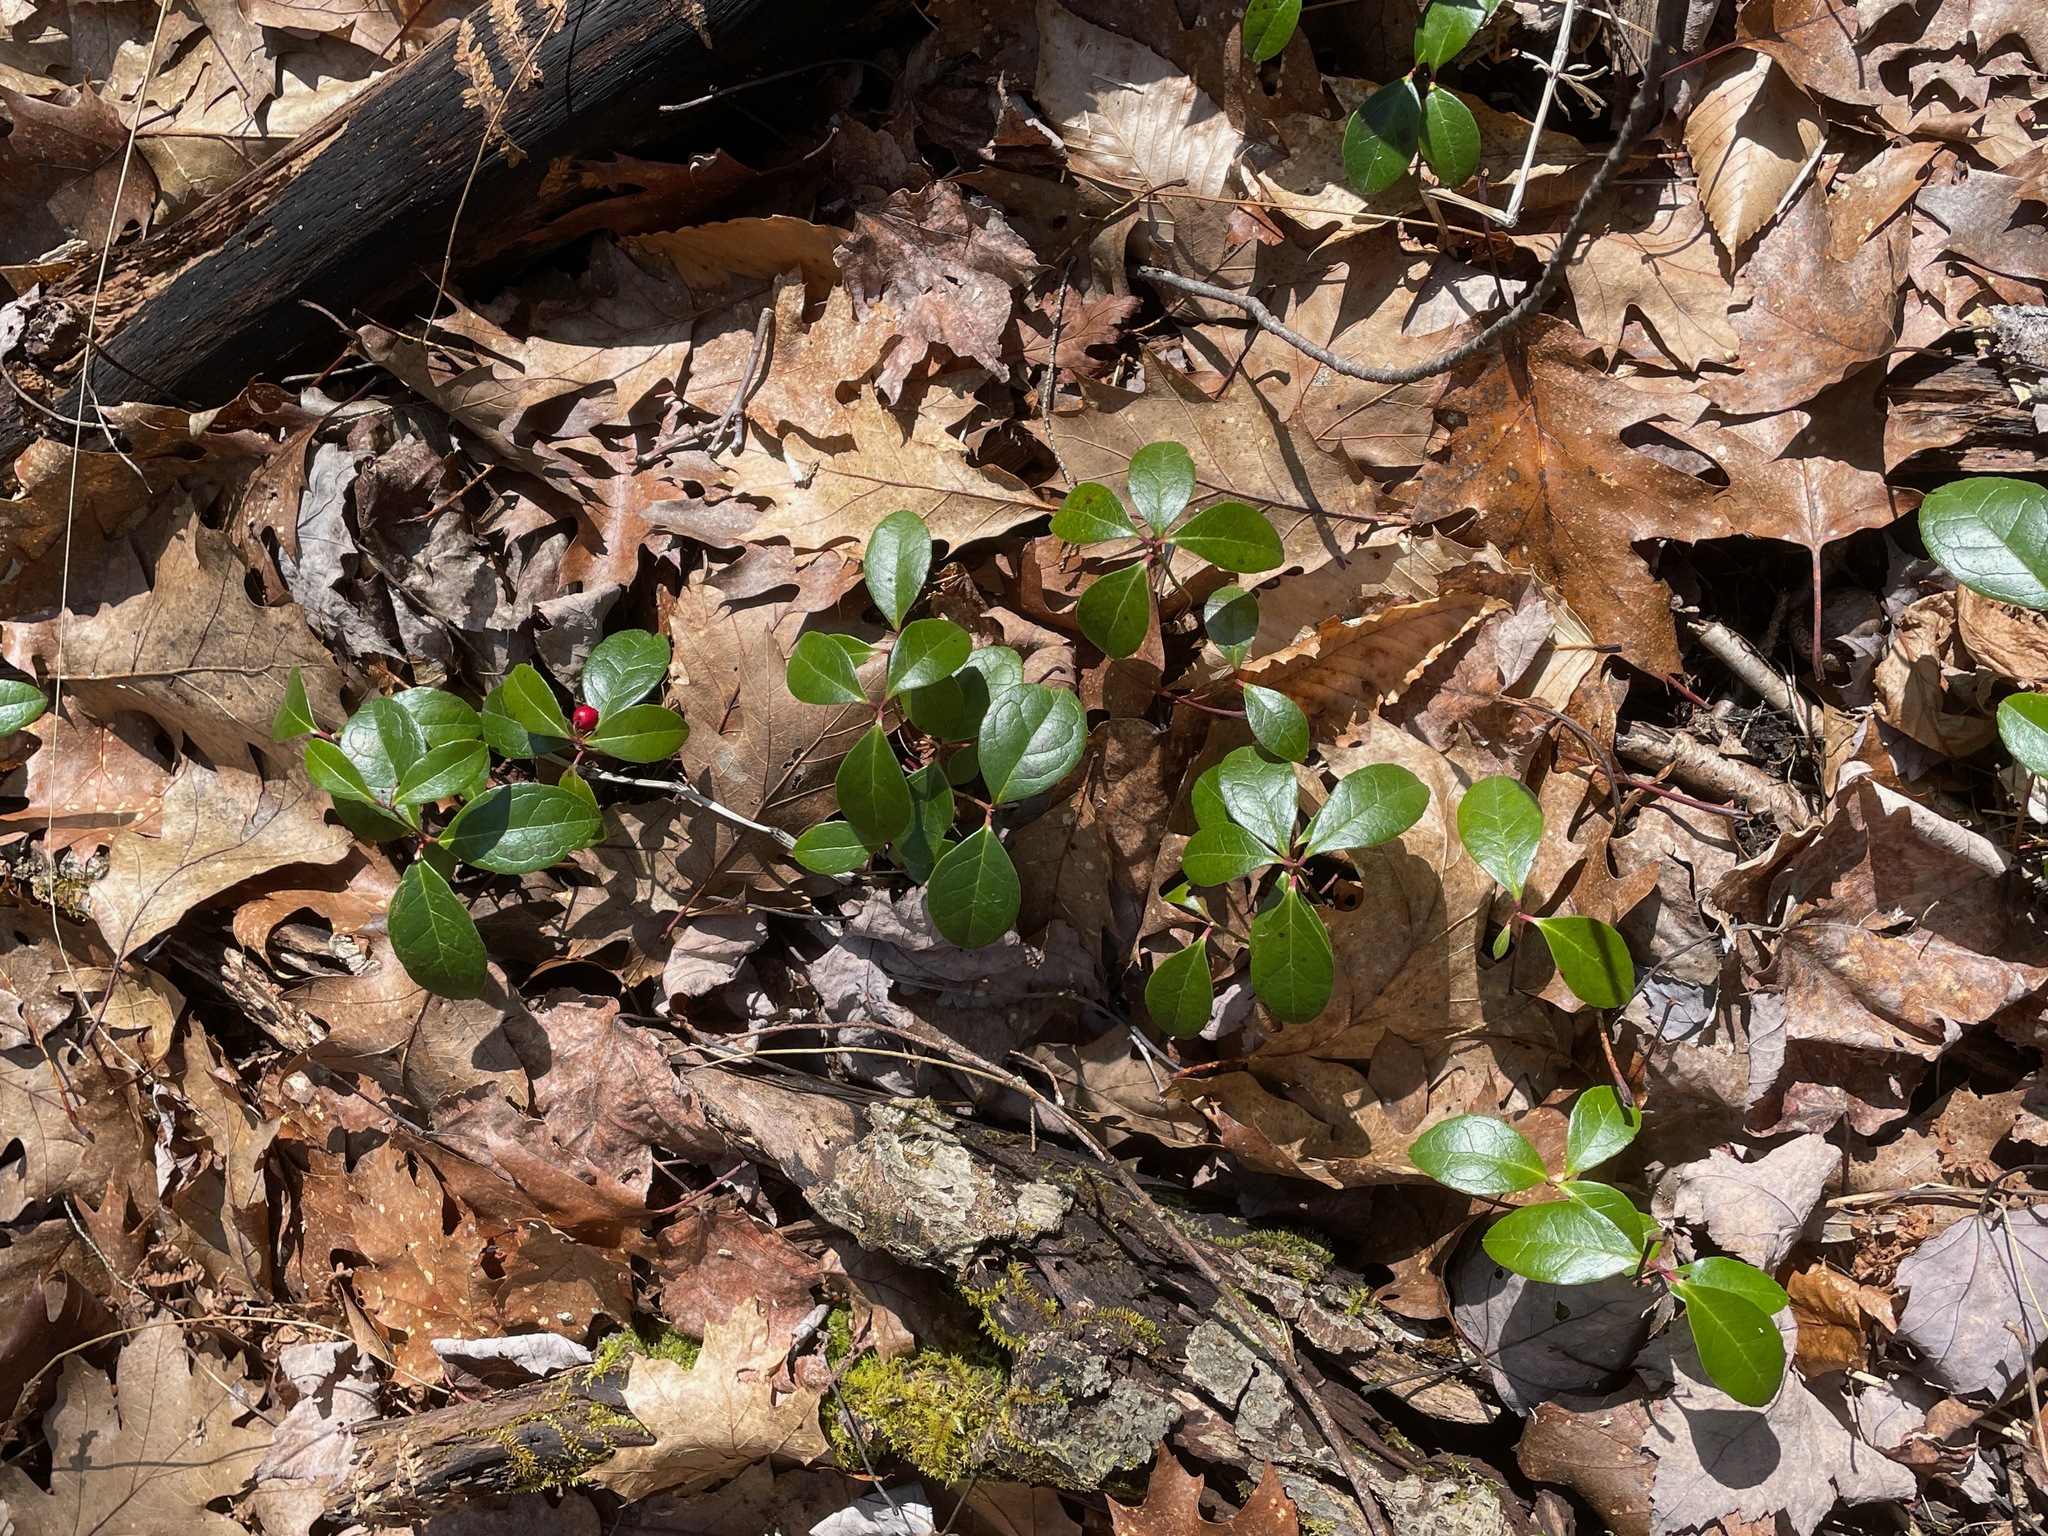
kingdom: Plantae
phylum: Tracheophyta
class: Magnoliopsida
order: Ericales
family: Ericaceae
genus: Gaultheria
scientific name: Gaultheria procumbens
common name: Checkerberry
